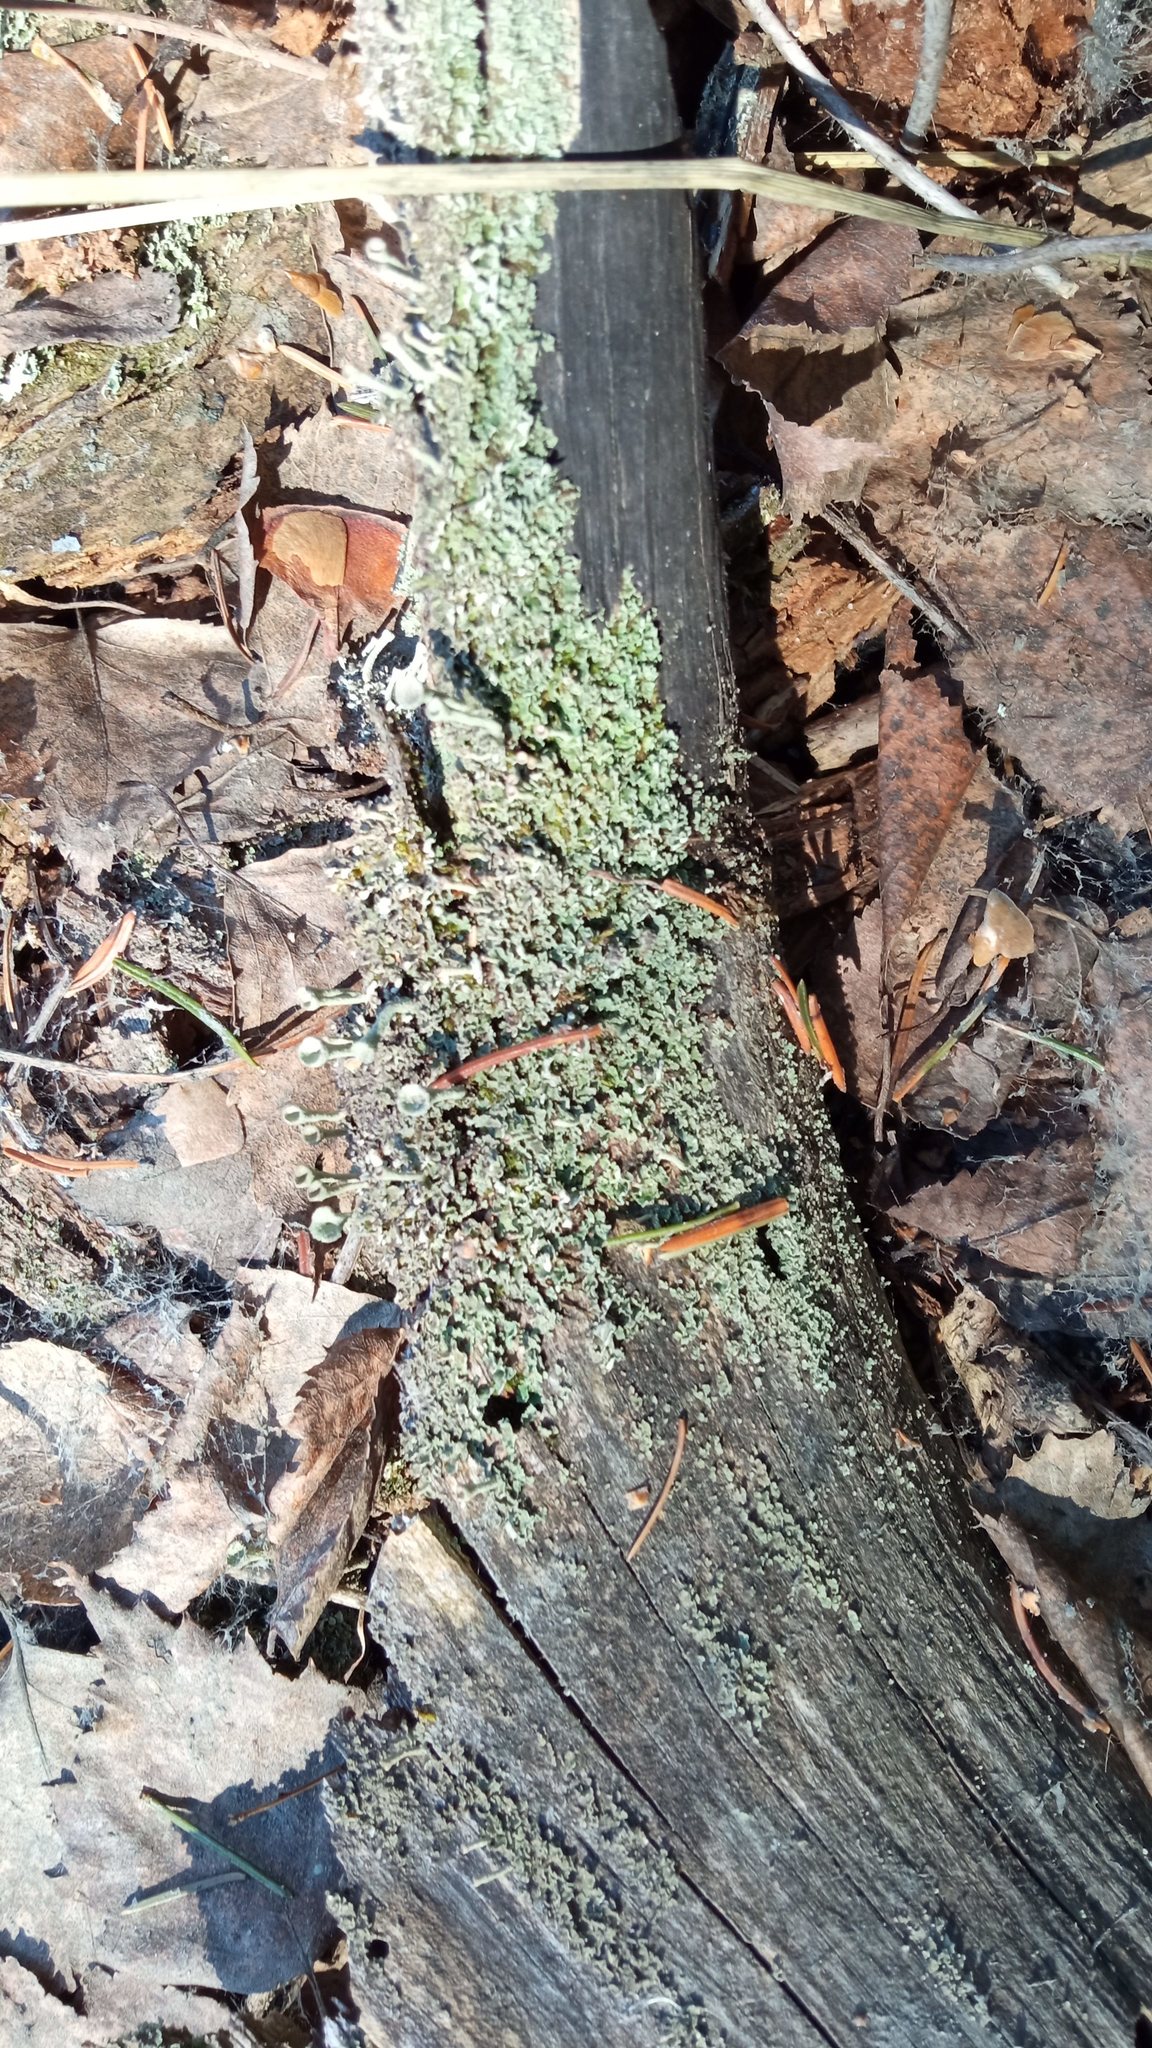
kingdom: Fungi
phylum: Ascomycota
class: Lecanoromycetes
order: Lecanorales
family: Cladoniaceae
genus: Cladonia
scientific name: Cladonia coniocraea
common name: Common powderhorn
